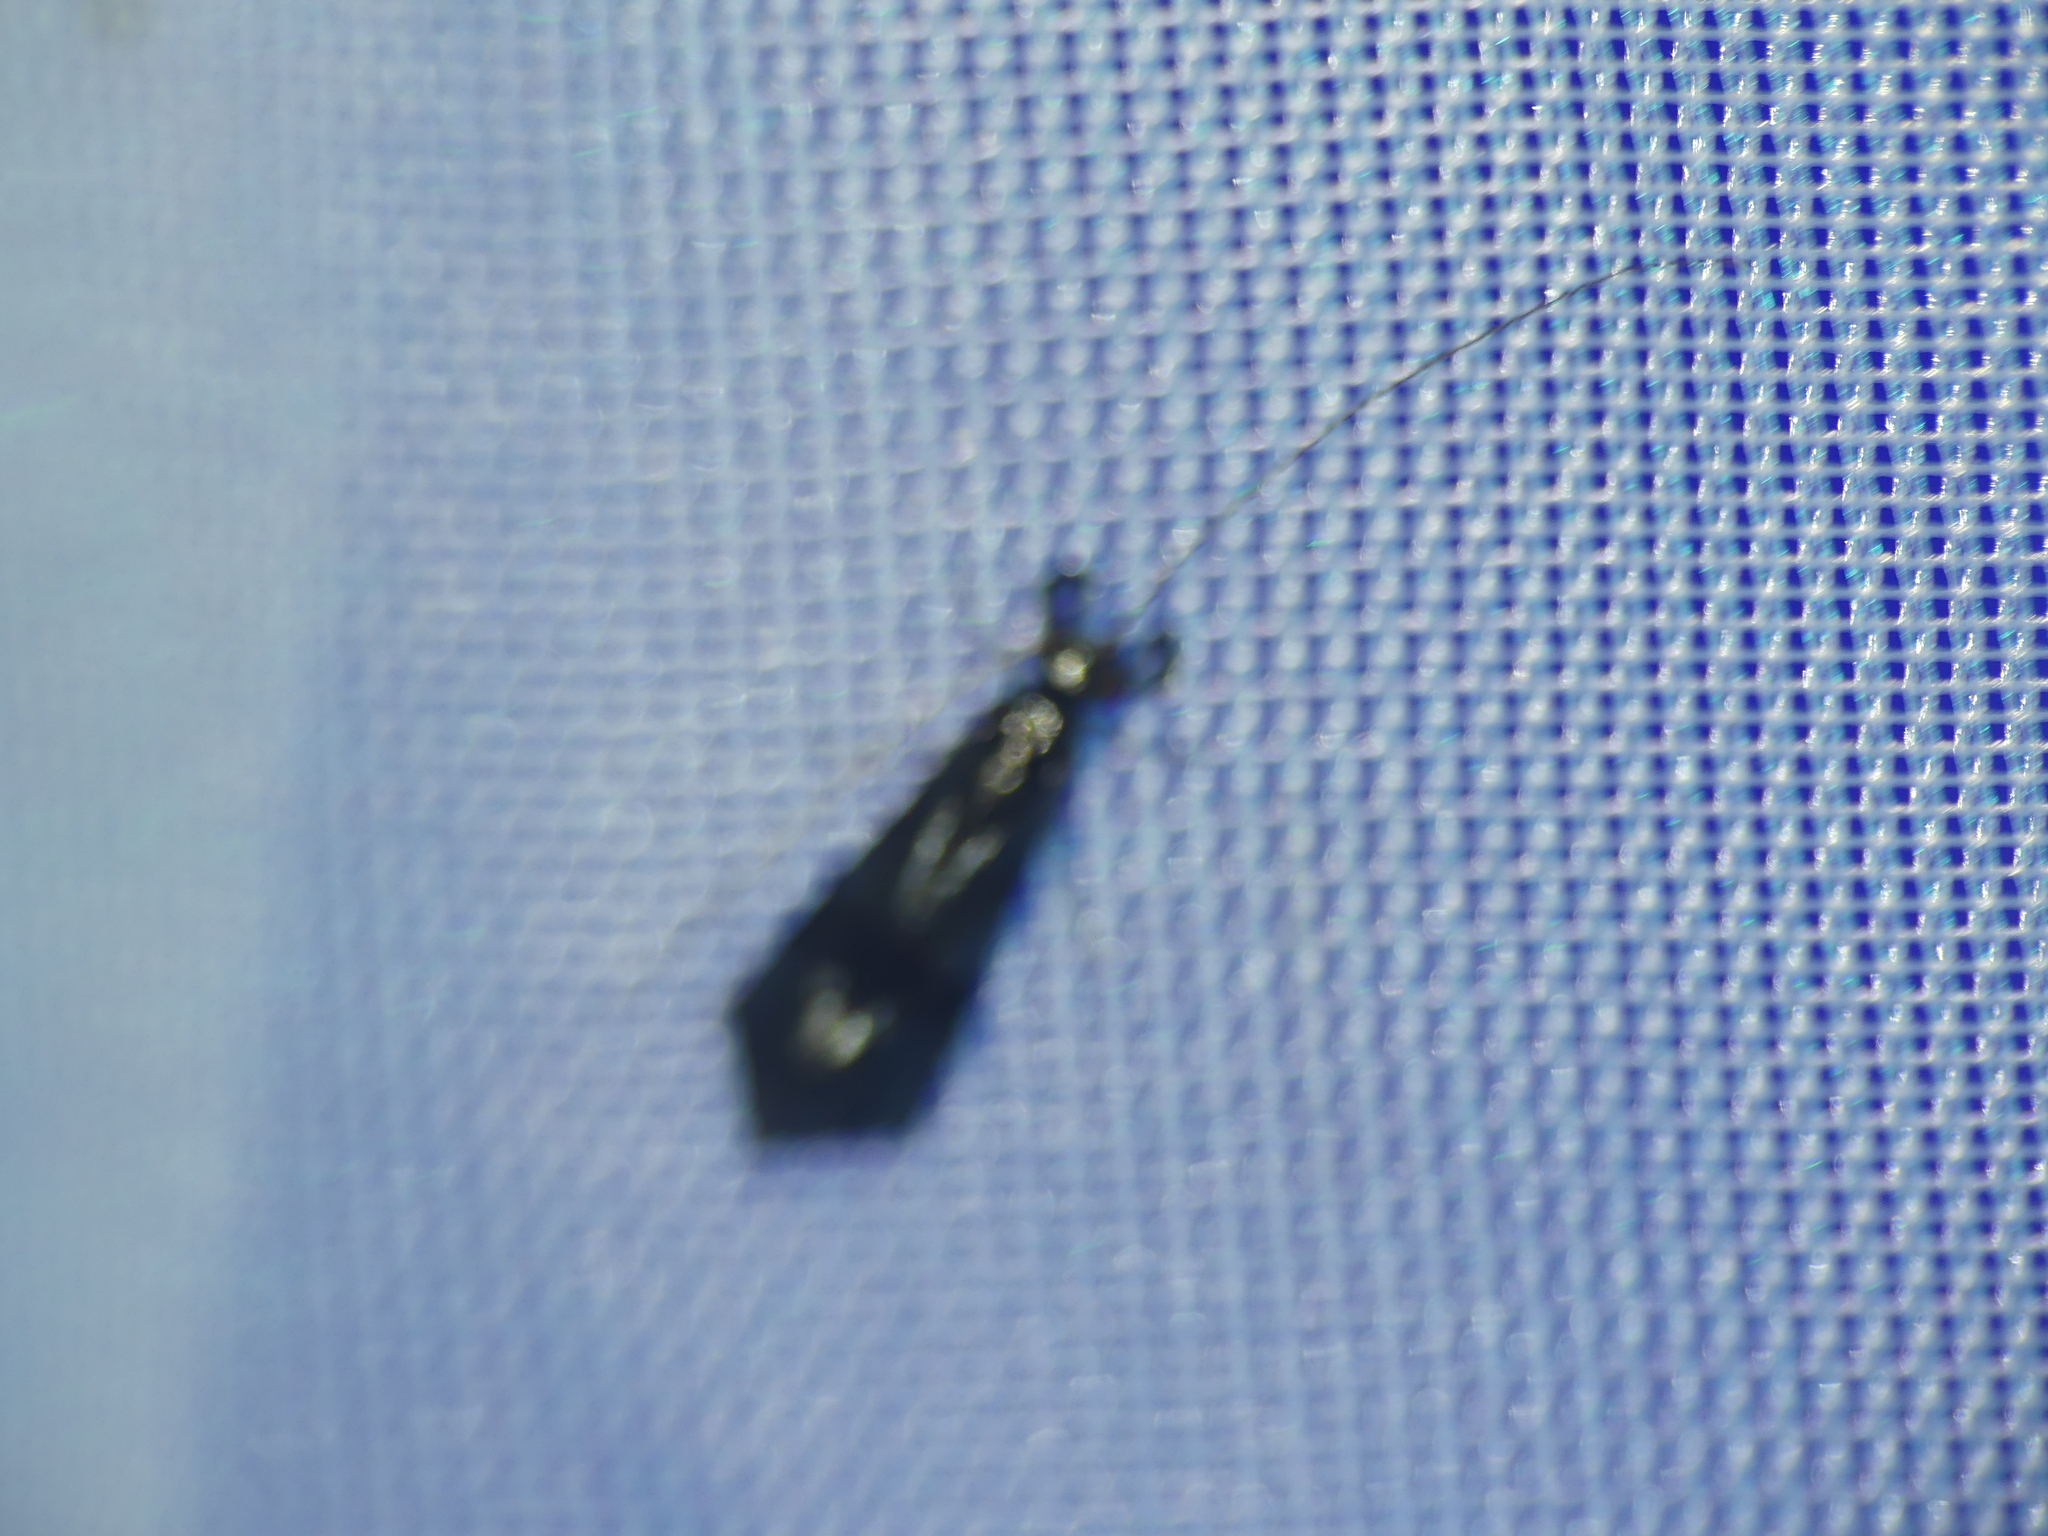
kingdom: Animalia
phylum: Arthropoda
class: Insecta
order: Trichoptera
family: Leptoceridae
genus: Mystacides
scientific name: Mystacides azureus
